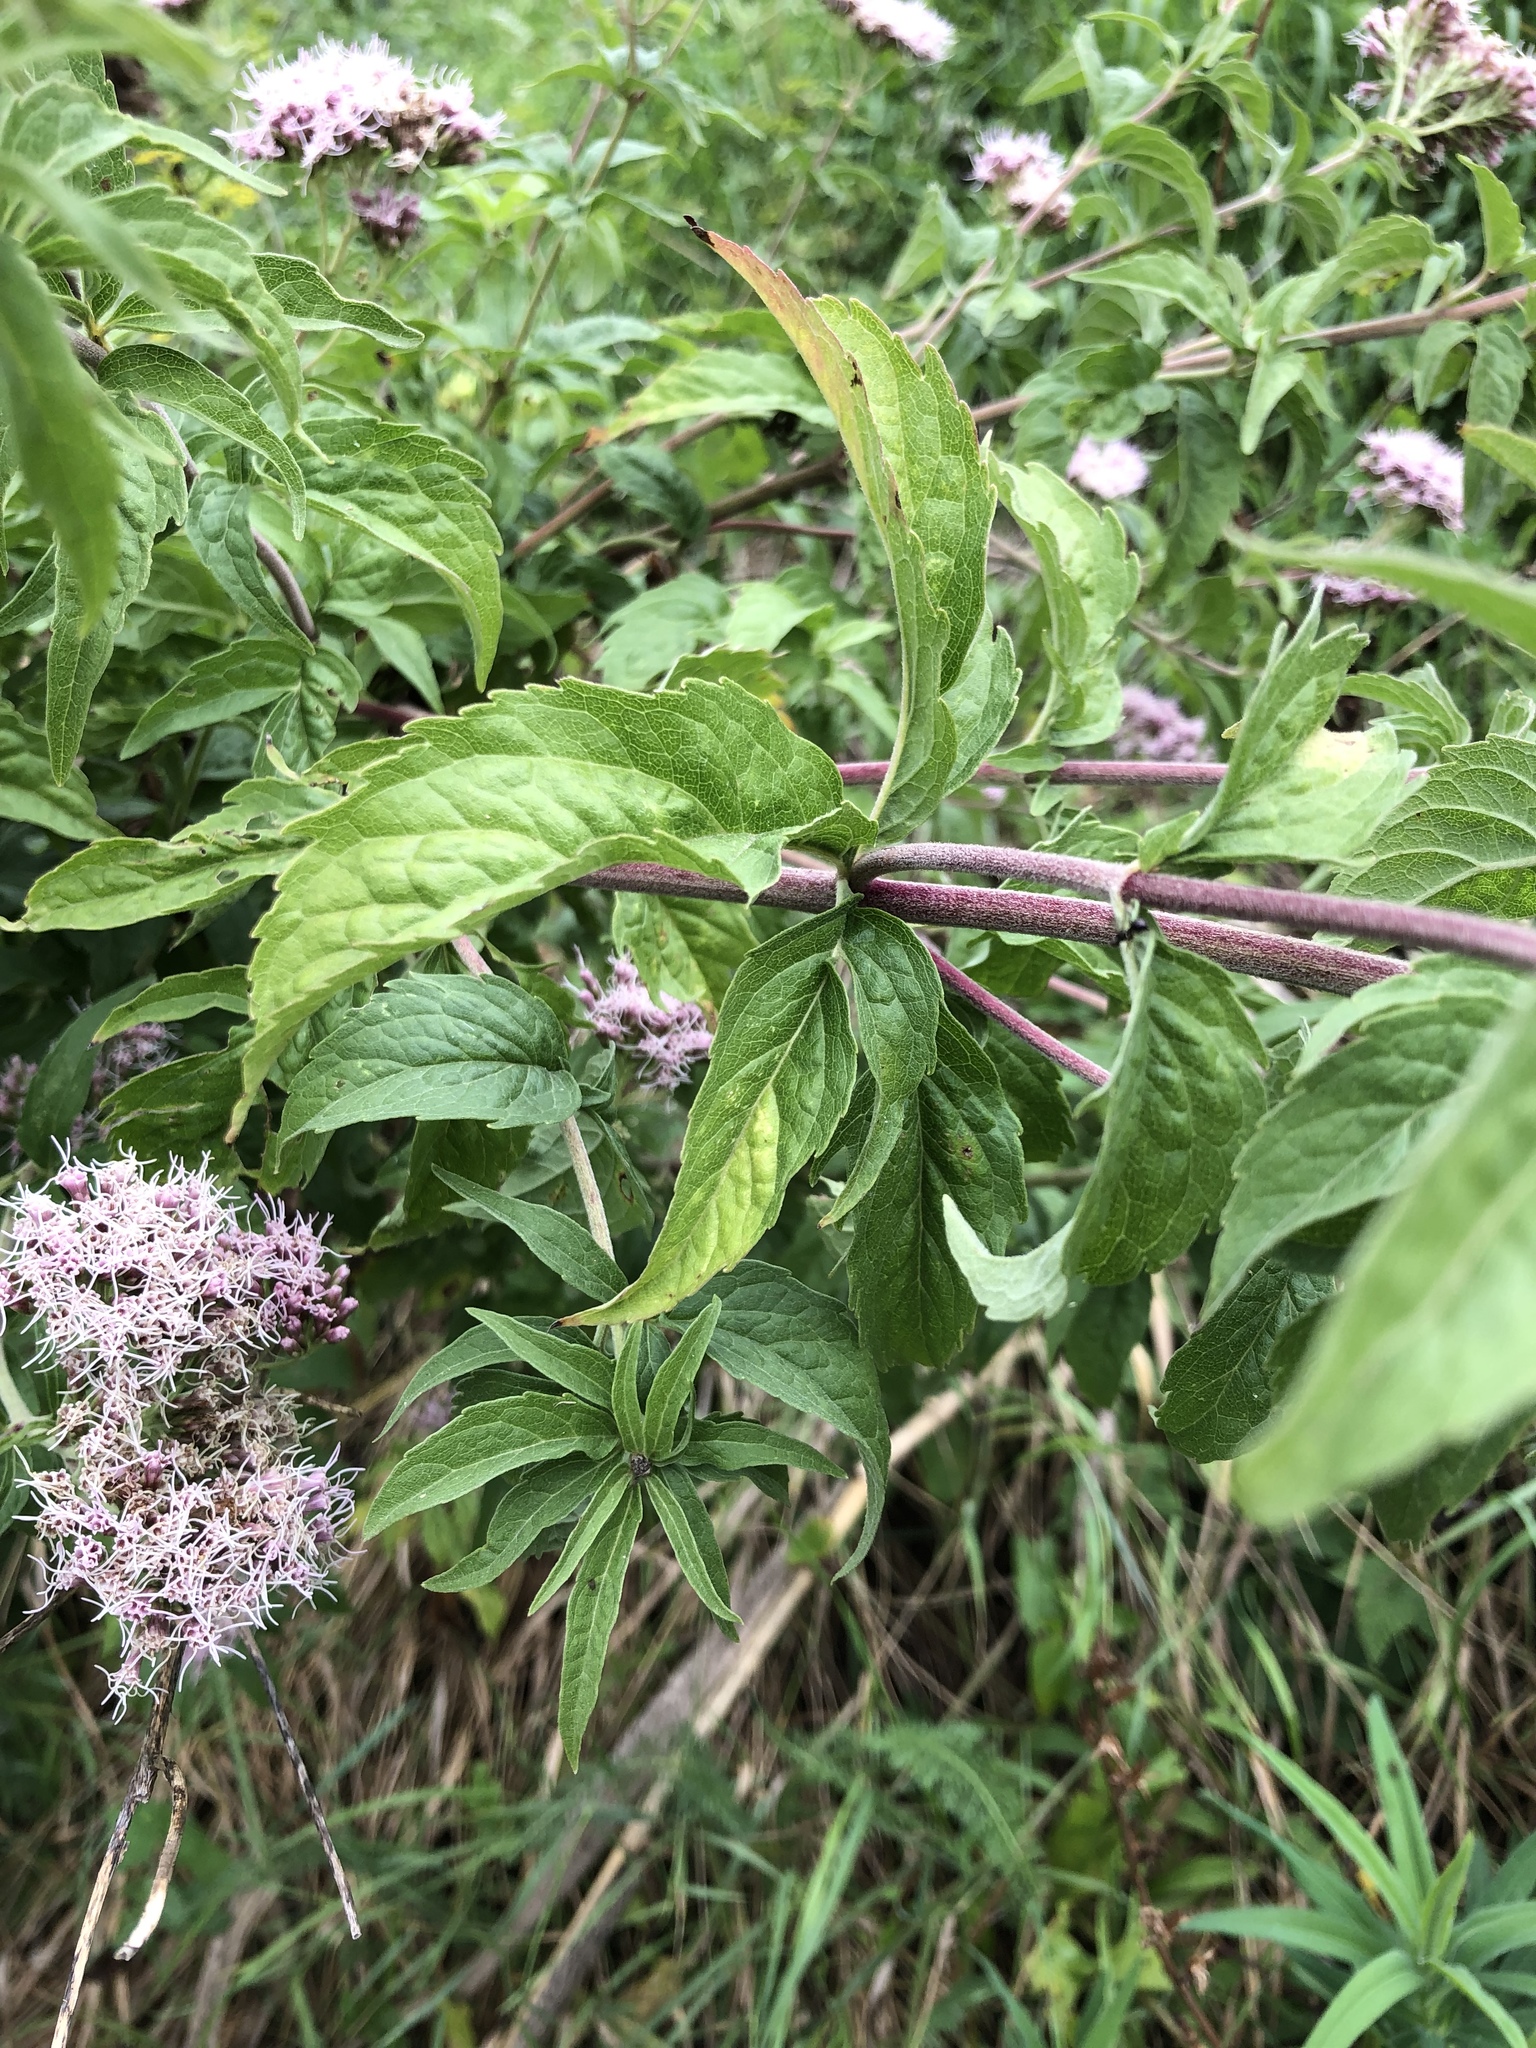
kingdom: Plantae
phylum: Tracheophyta
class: Magnoliopsida
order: Asterales
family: Asteraceae
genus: Eupatorium
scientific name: Eupatorium cannabinum
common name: Hemp-agrimony
